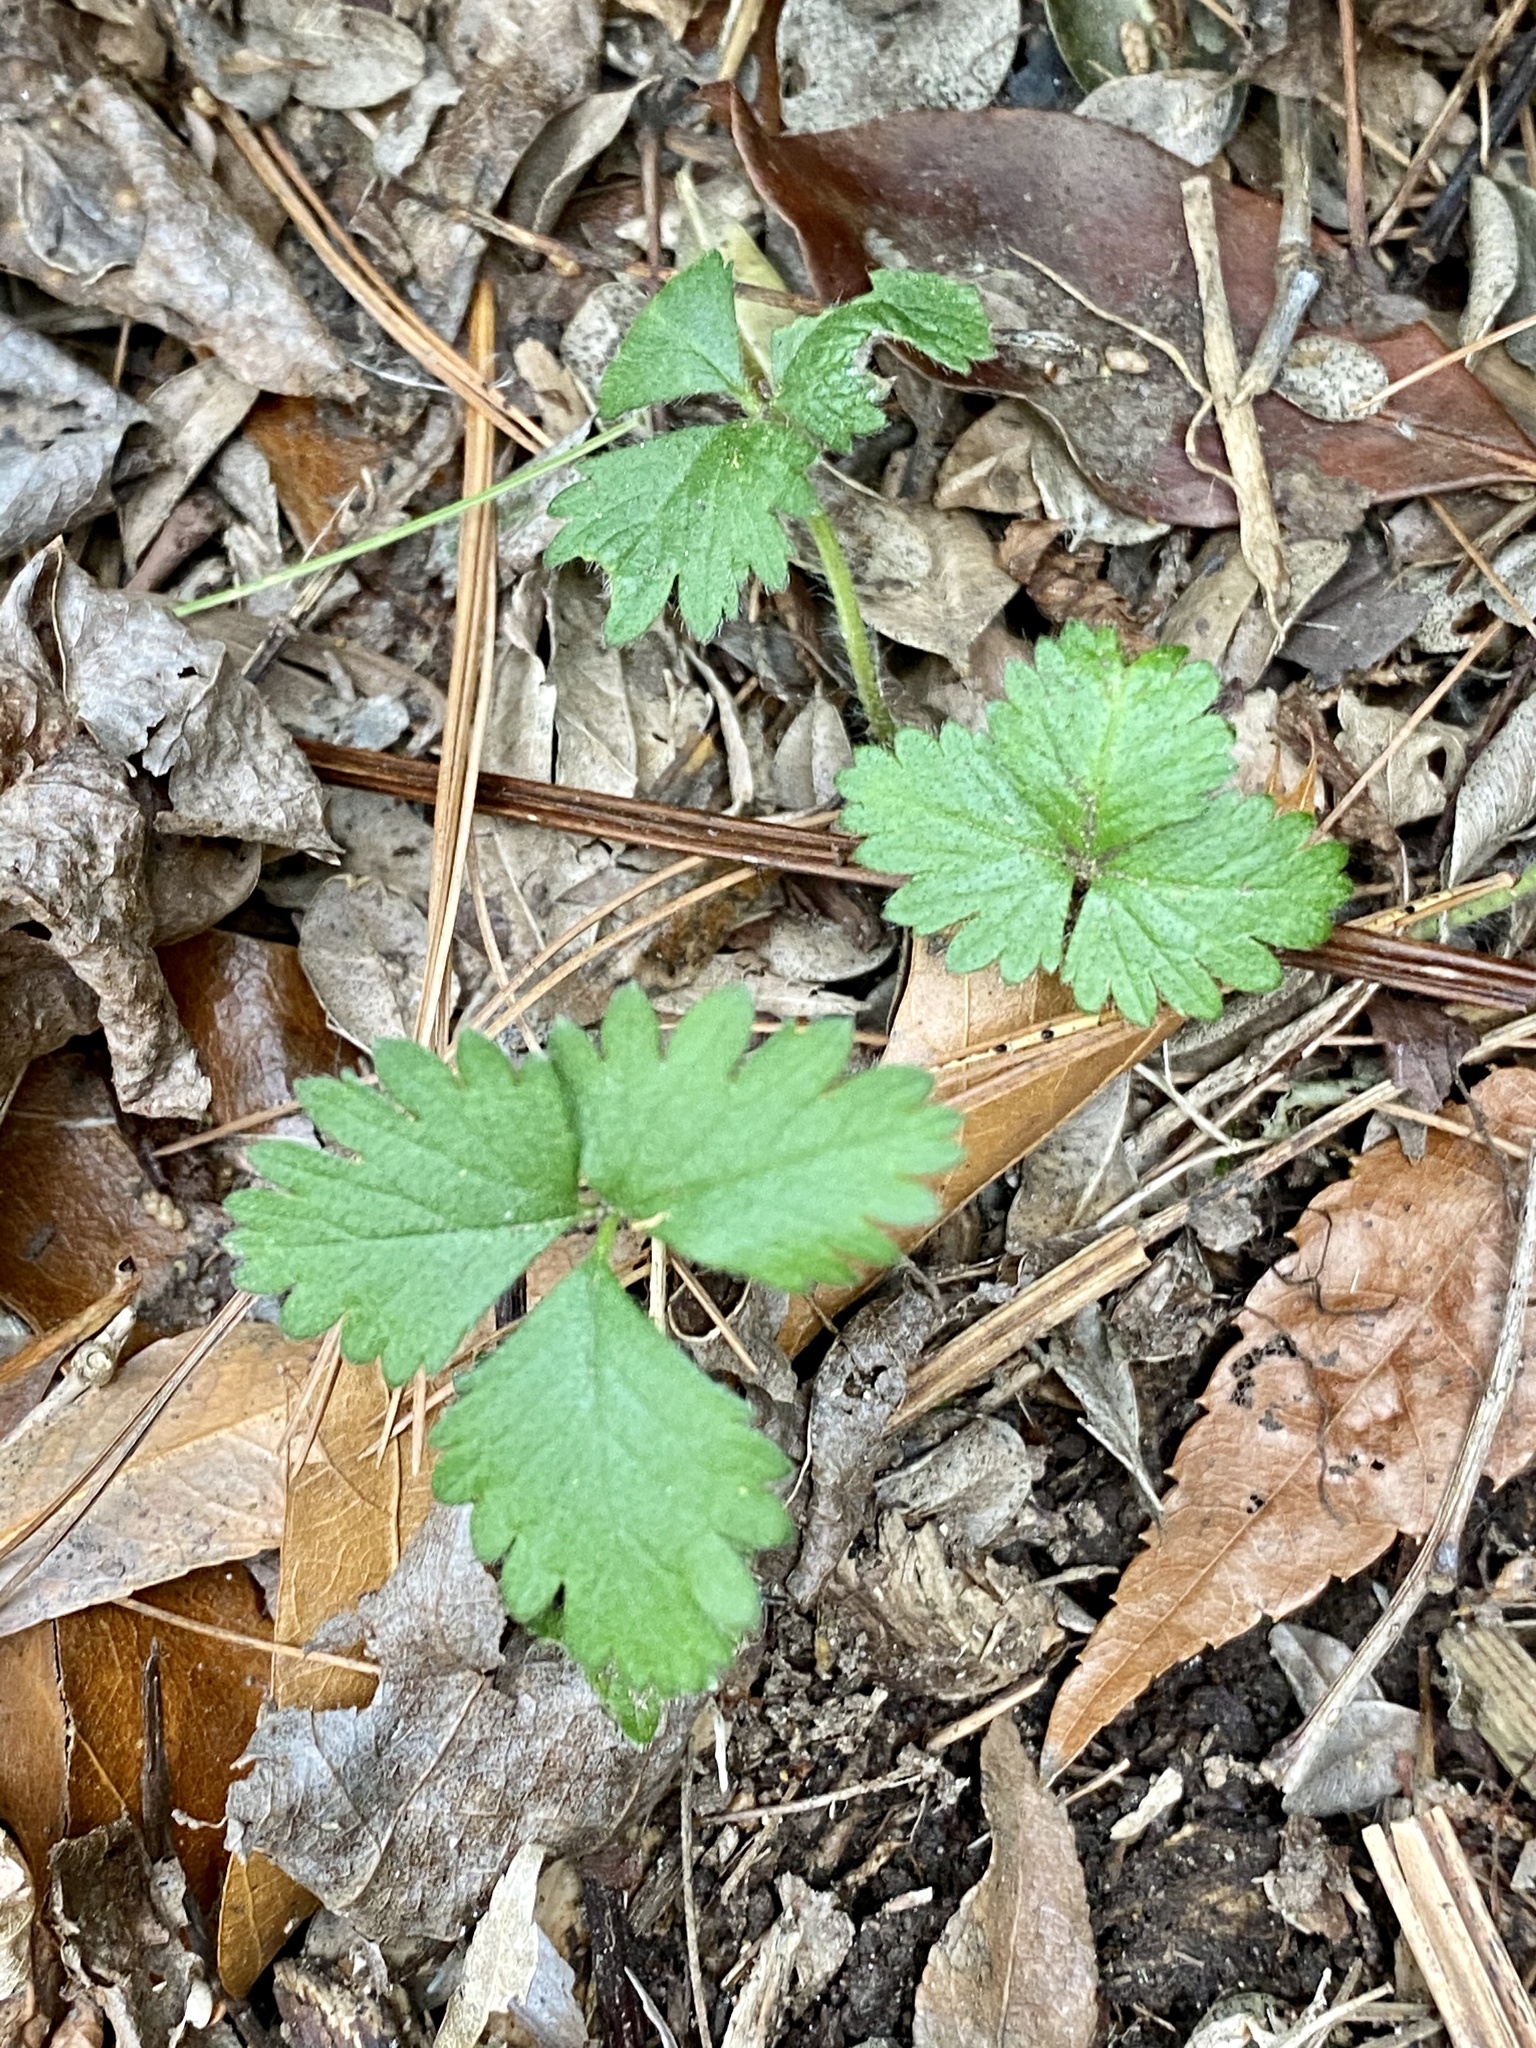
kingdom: Plantae
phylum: Tracheophyta
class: Magnoliopsida
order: Rosales
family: Rosaceae
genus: Potentilla
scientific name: Potentilla indica
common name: Yellow-flowered strawberry
